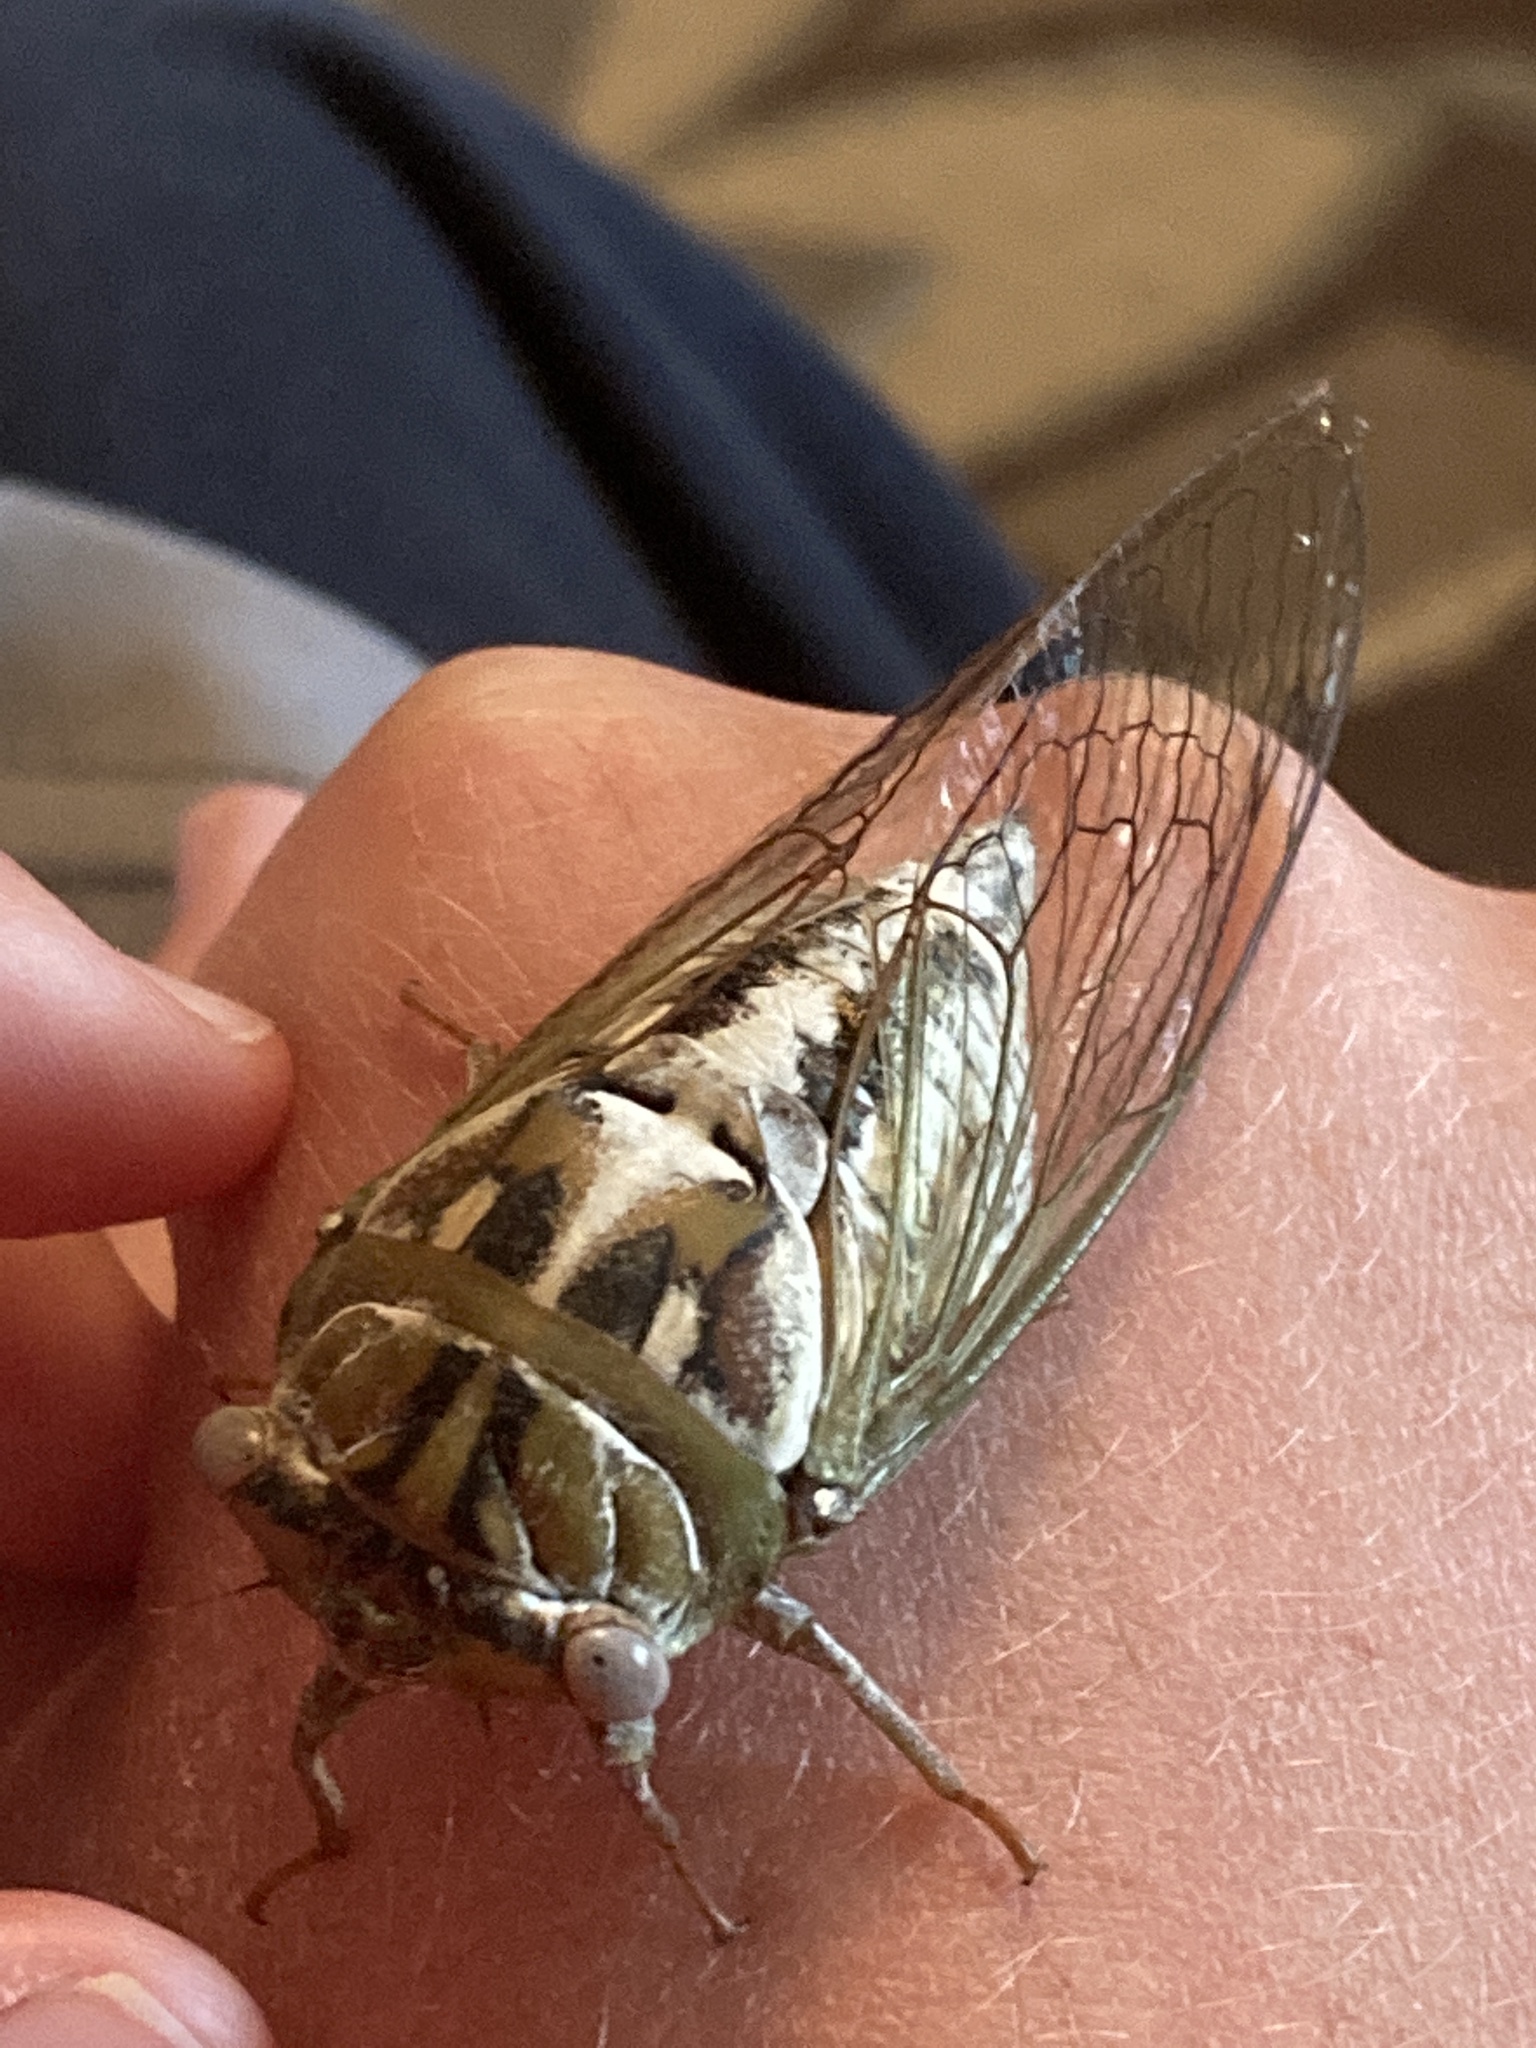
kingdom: Animalia
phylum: Arthropoda
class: Insecta
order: Hemiptera
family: Cicadidae
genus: Megatibicen
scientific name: Megatibicen dealbatus
